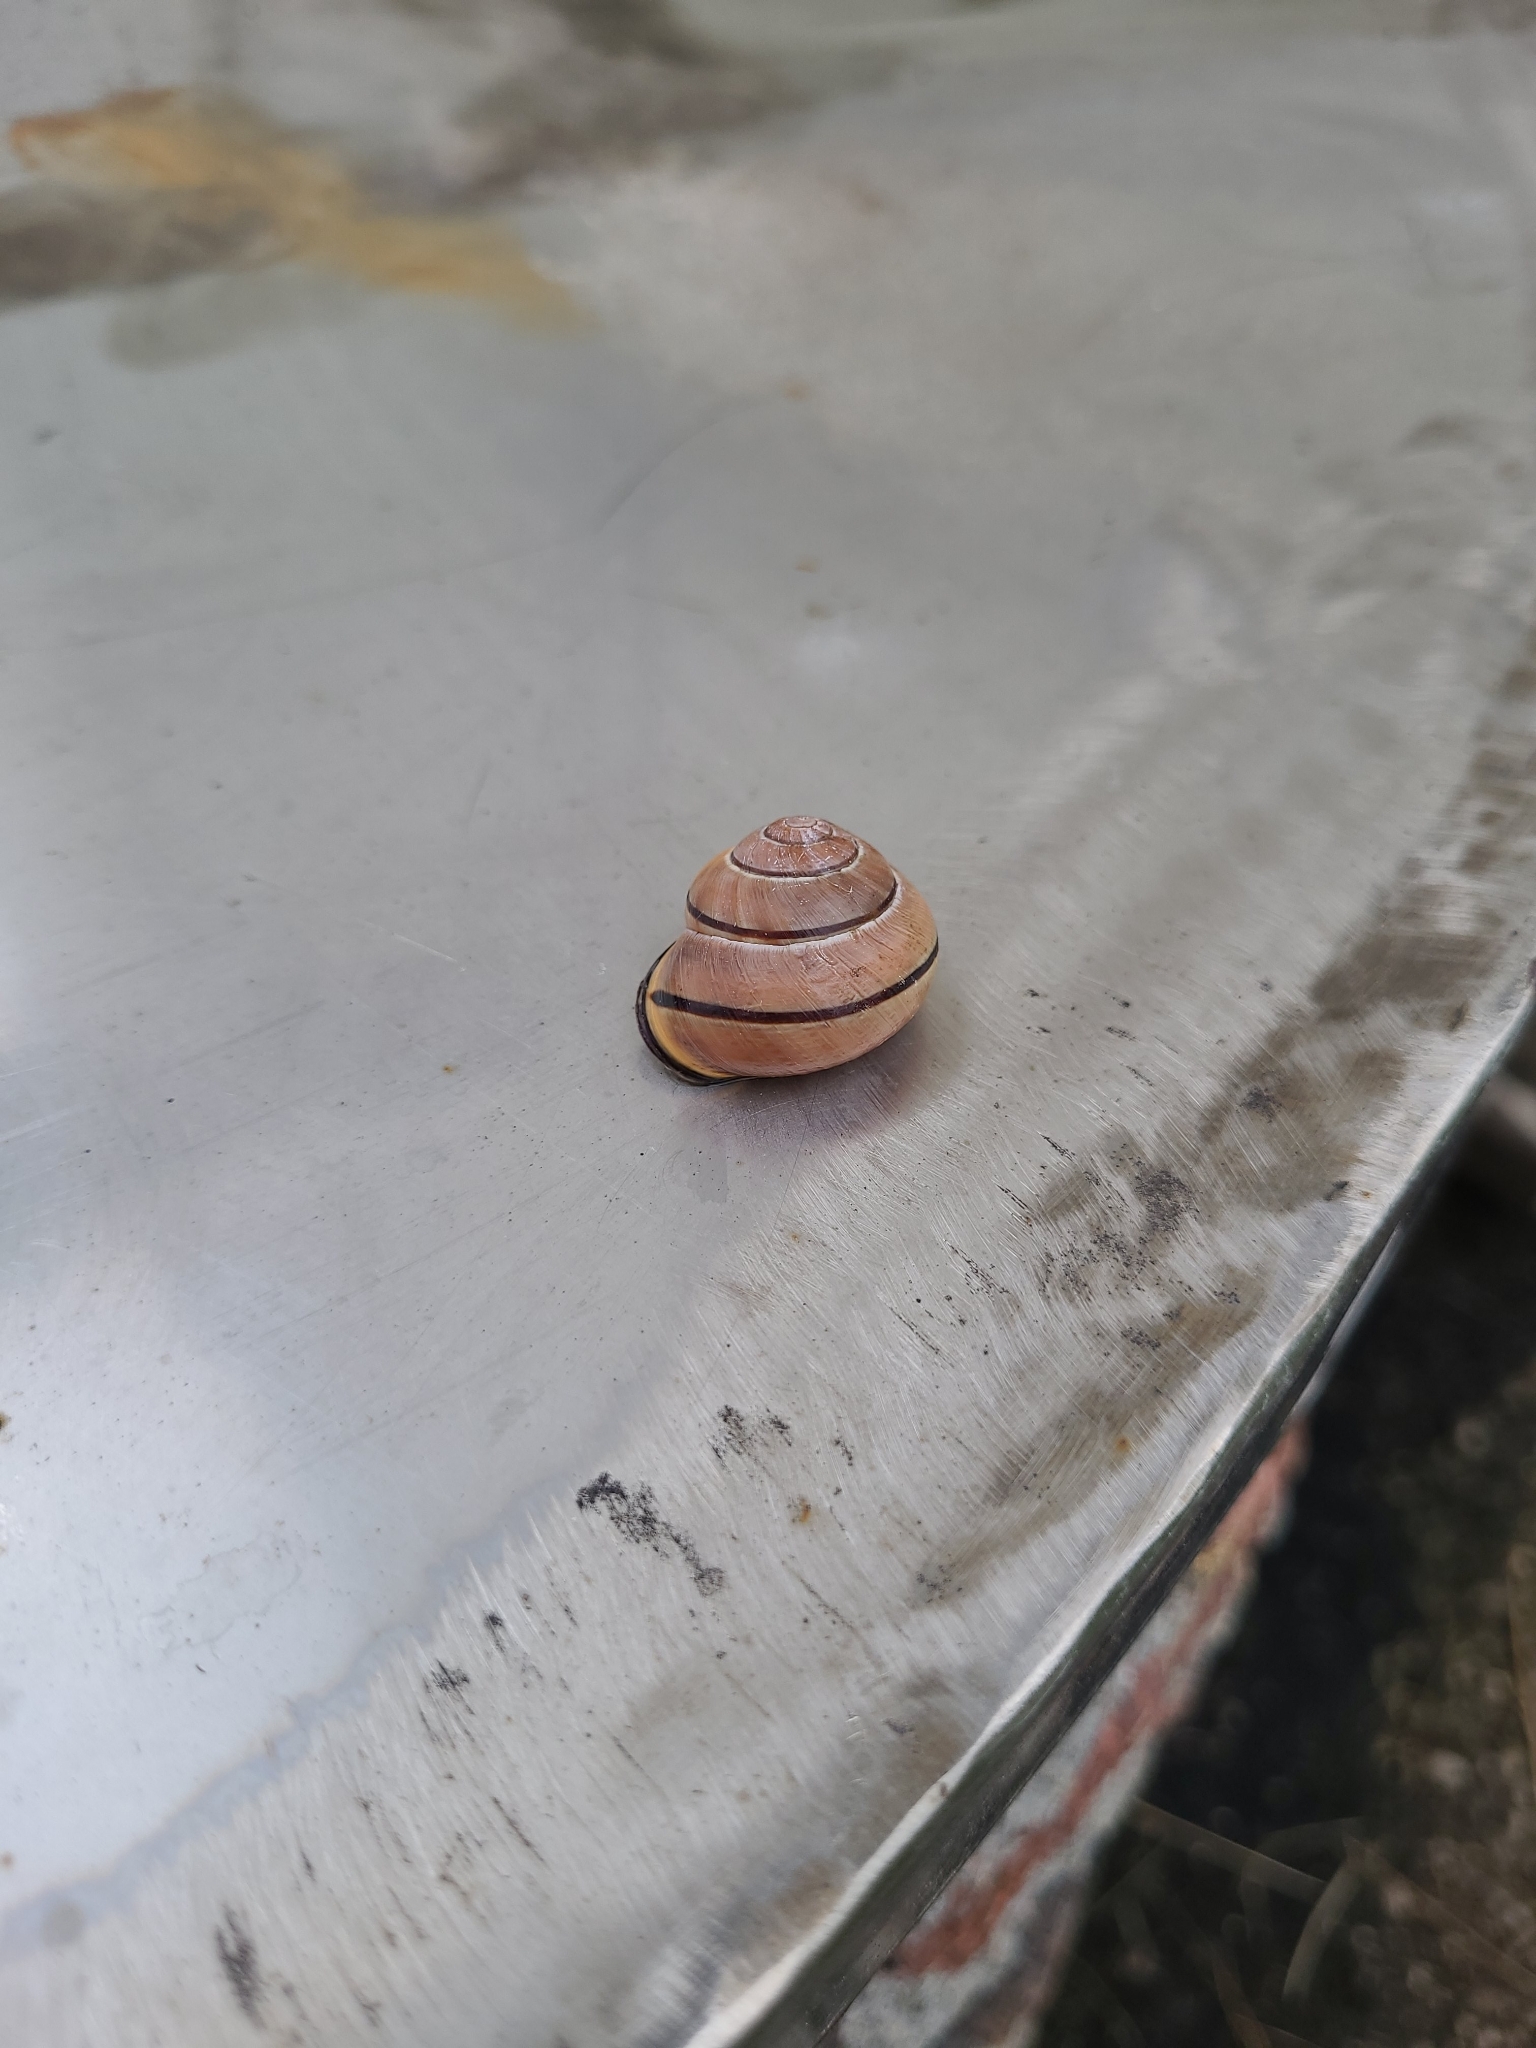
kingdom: Animalia
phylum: Mollusca
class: Gastropoda
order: Stylommatophora
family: Helicidae
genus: Cepaea
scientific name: Cepaea nemoralis
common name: Grovesnail
